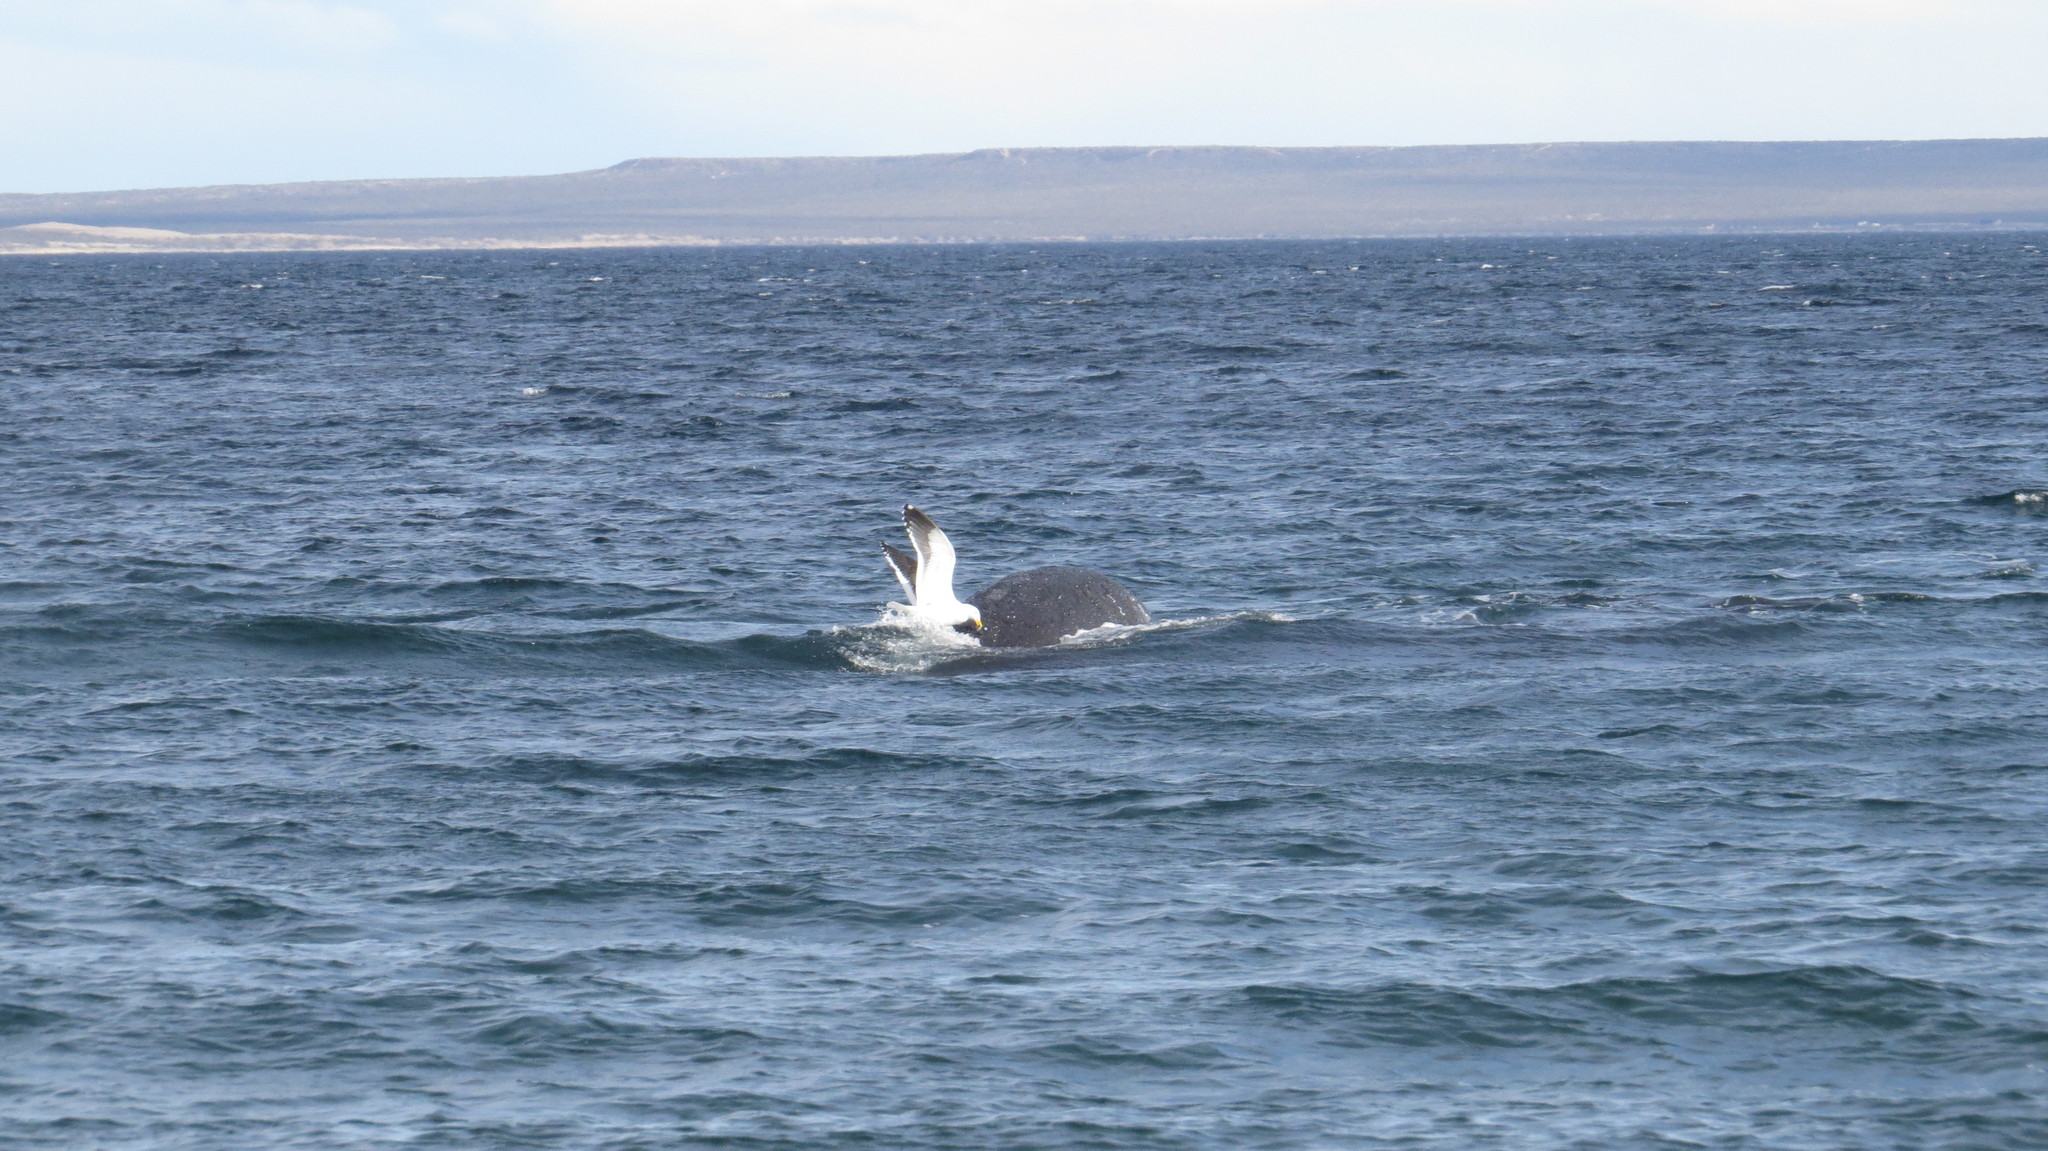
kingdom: Animalia
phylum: Chordata
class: Aves
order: Charadriiformes
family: Laridae
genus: Larus
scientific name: Larus dominicanus
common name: Kelp gull
